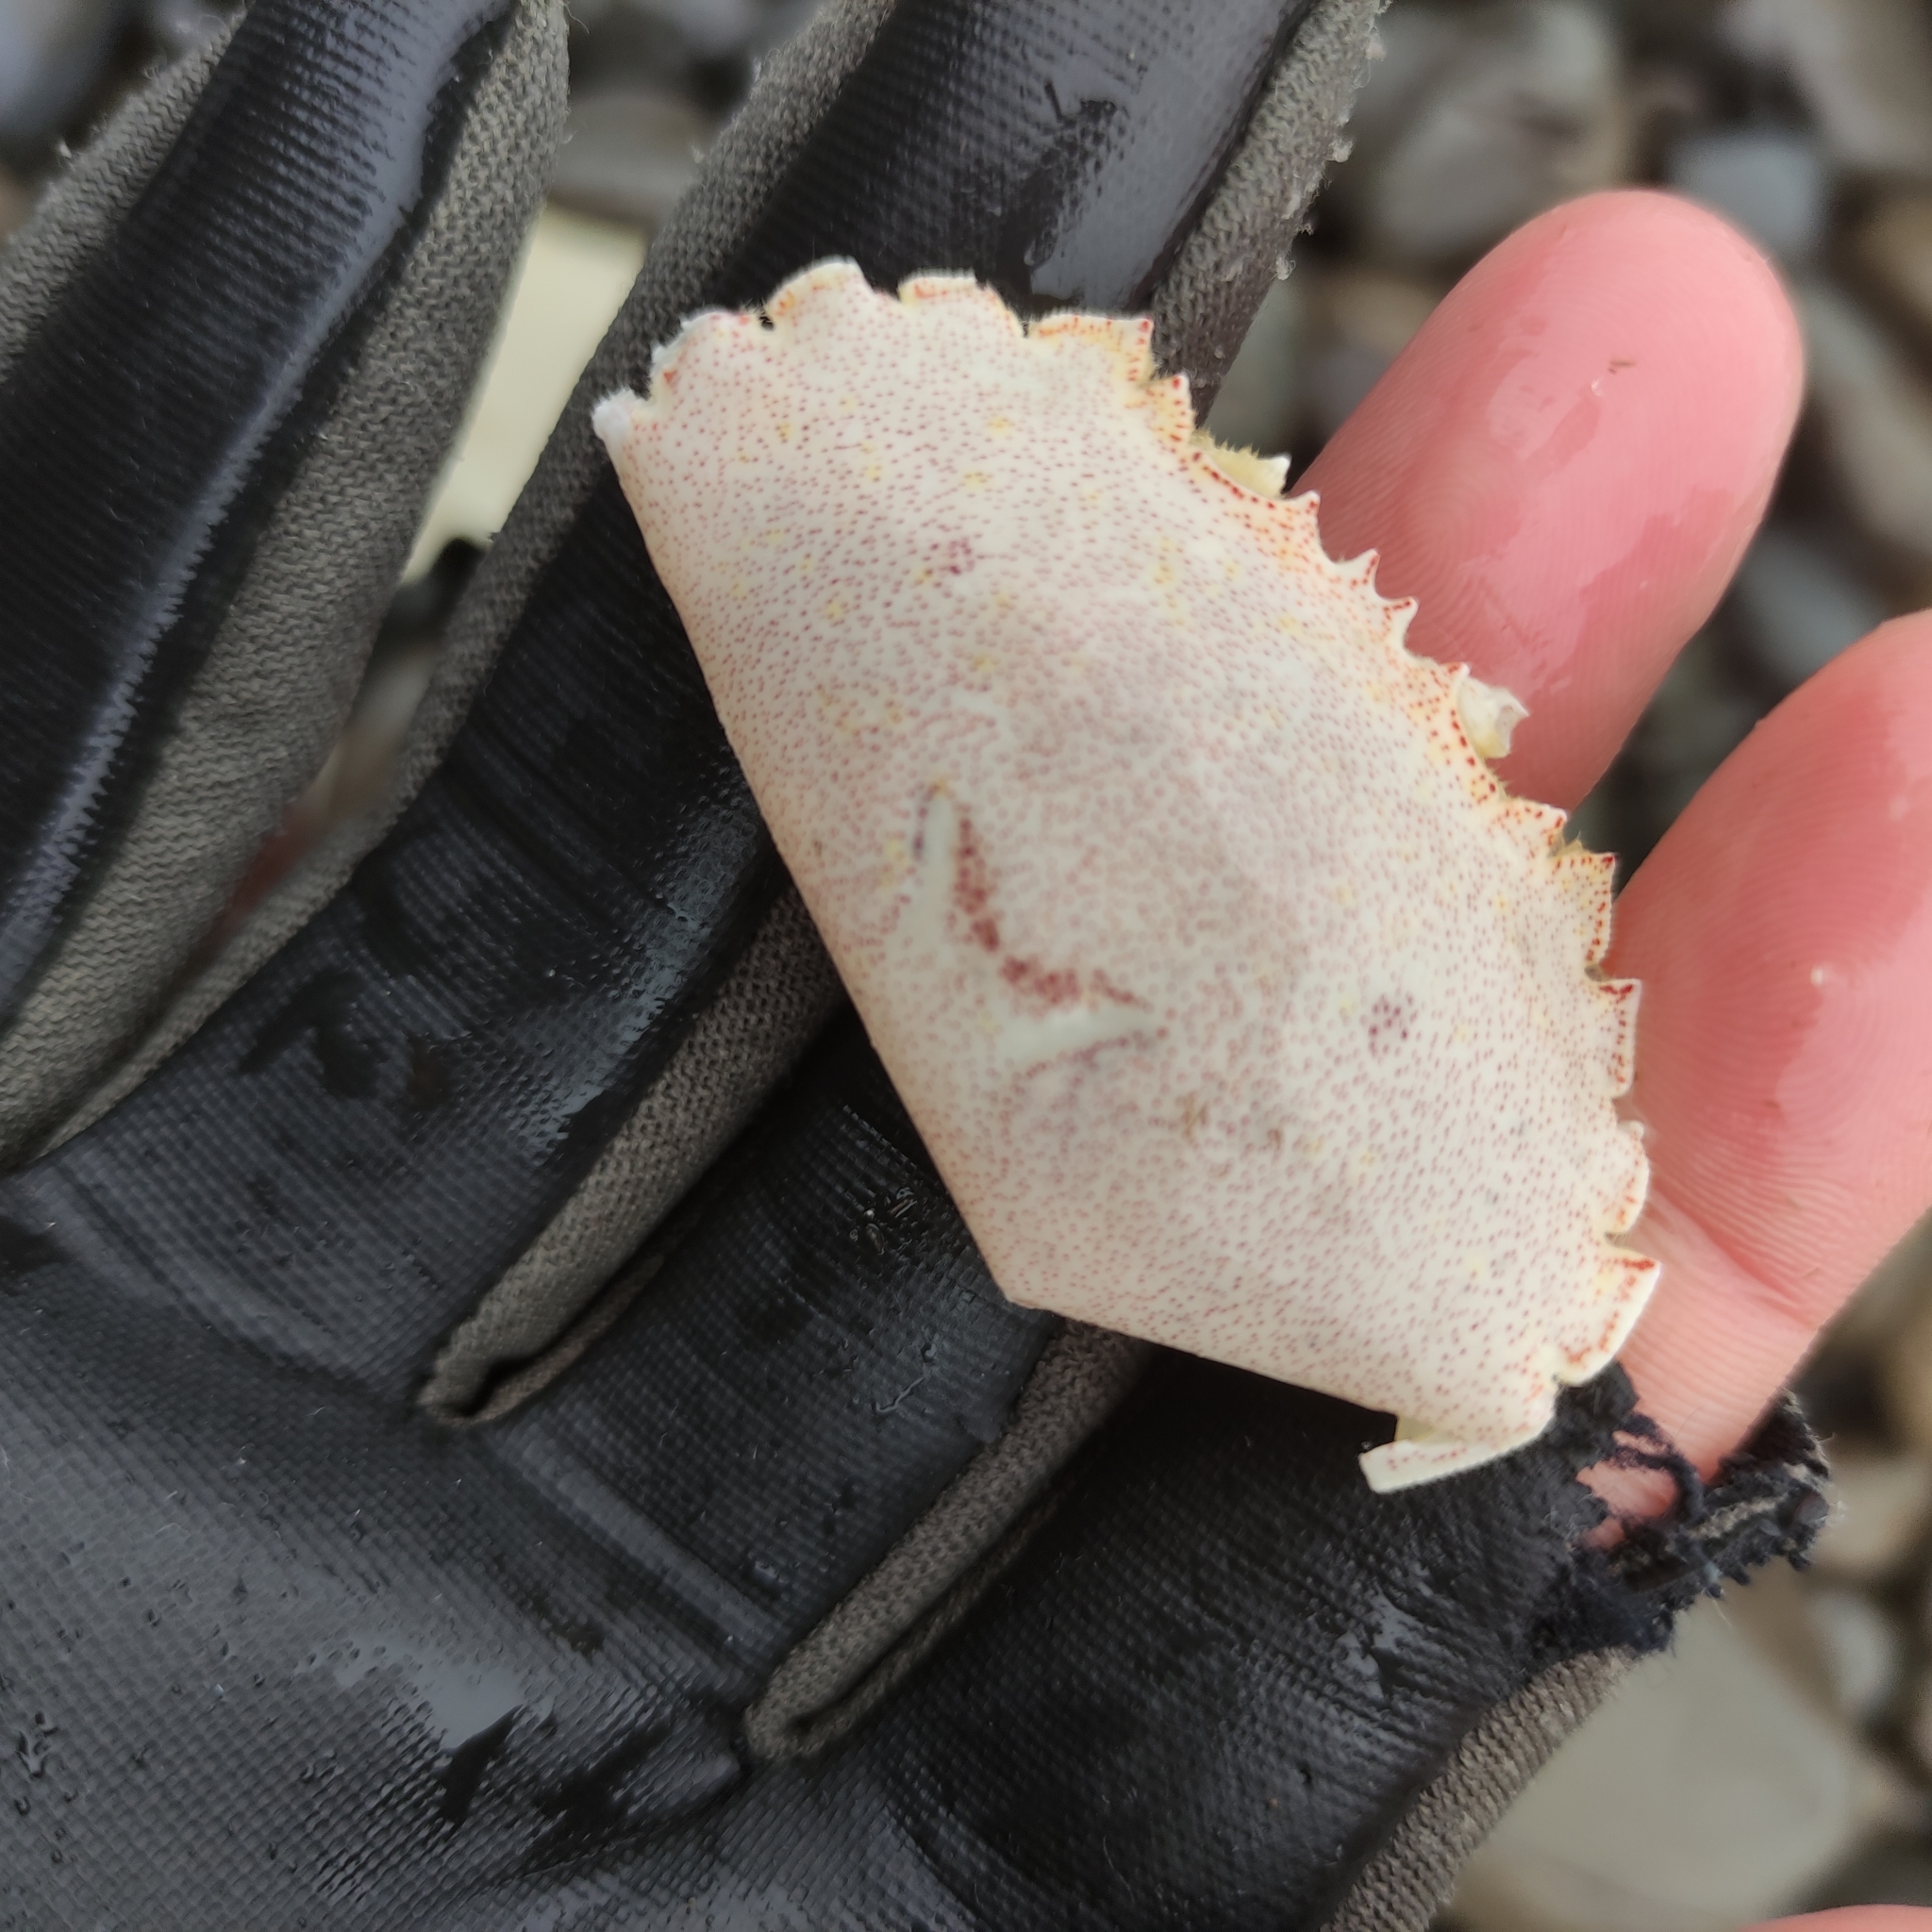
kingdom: Animalia
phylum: Arthropoda
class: Malacostraca
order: Decapoda
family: Ovalipidae
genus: Ovalipes
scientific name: Ovalipes catharus
